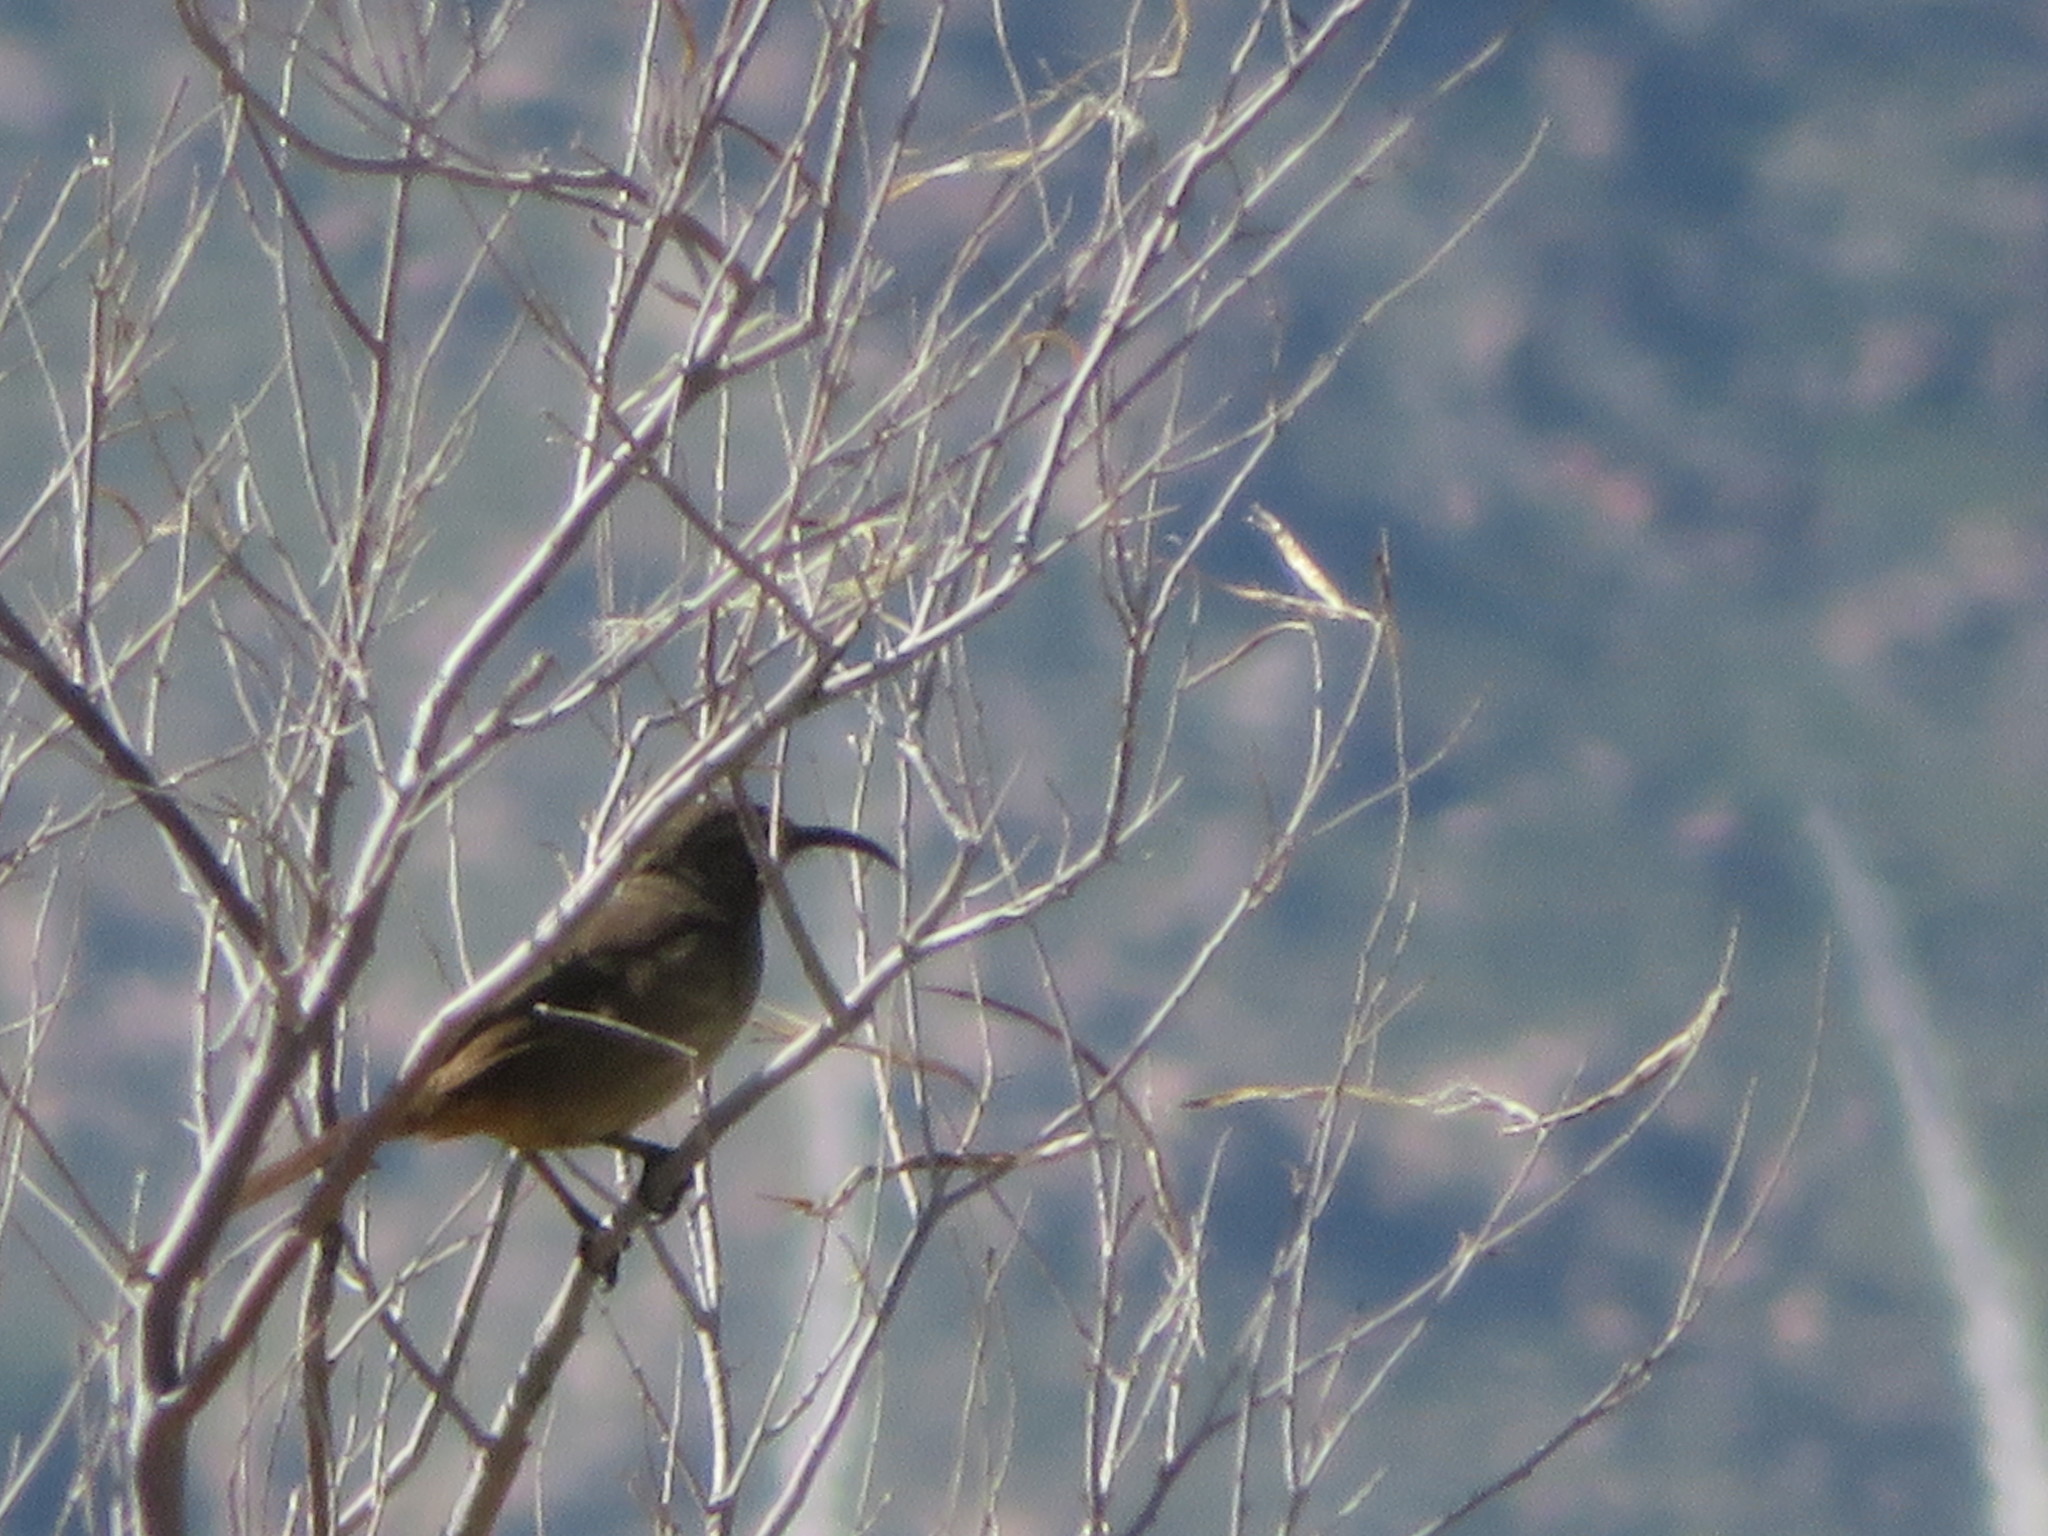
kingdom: Animalia
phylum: Chordata
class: Aves
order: Passeriformes
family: Mimidae
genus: Toxostoma
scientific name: Toxostoma redivivum
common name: California thrasher
